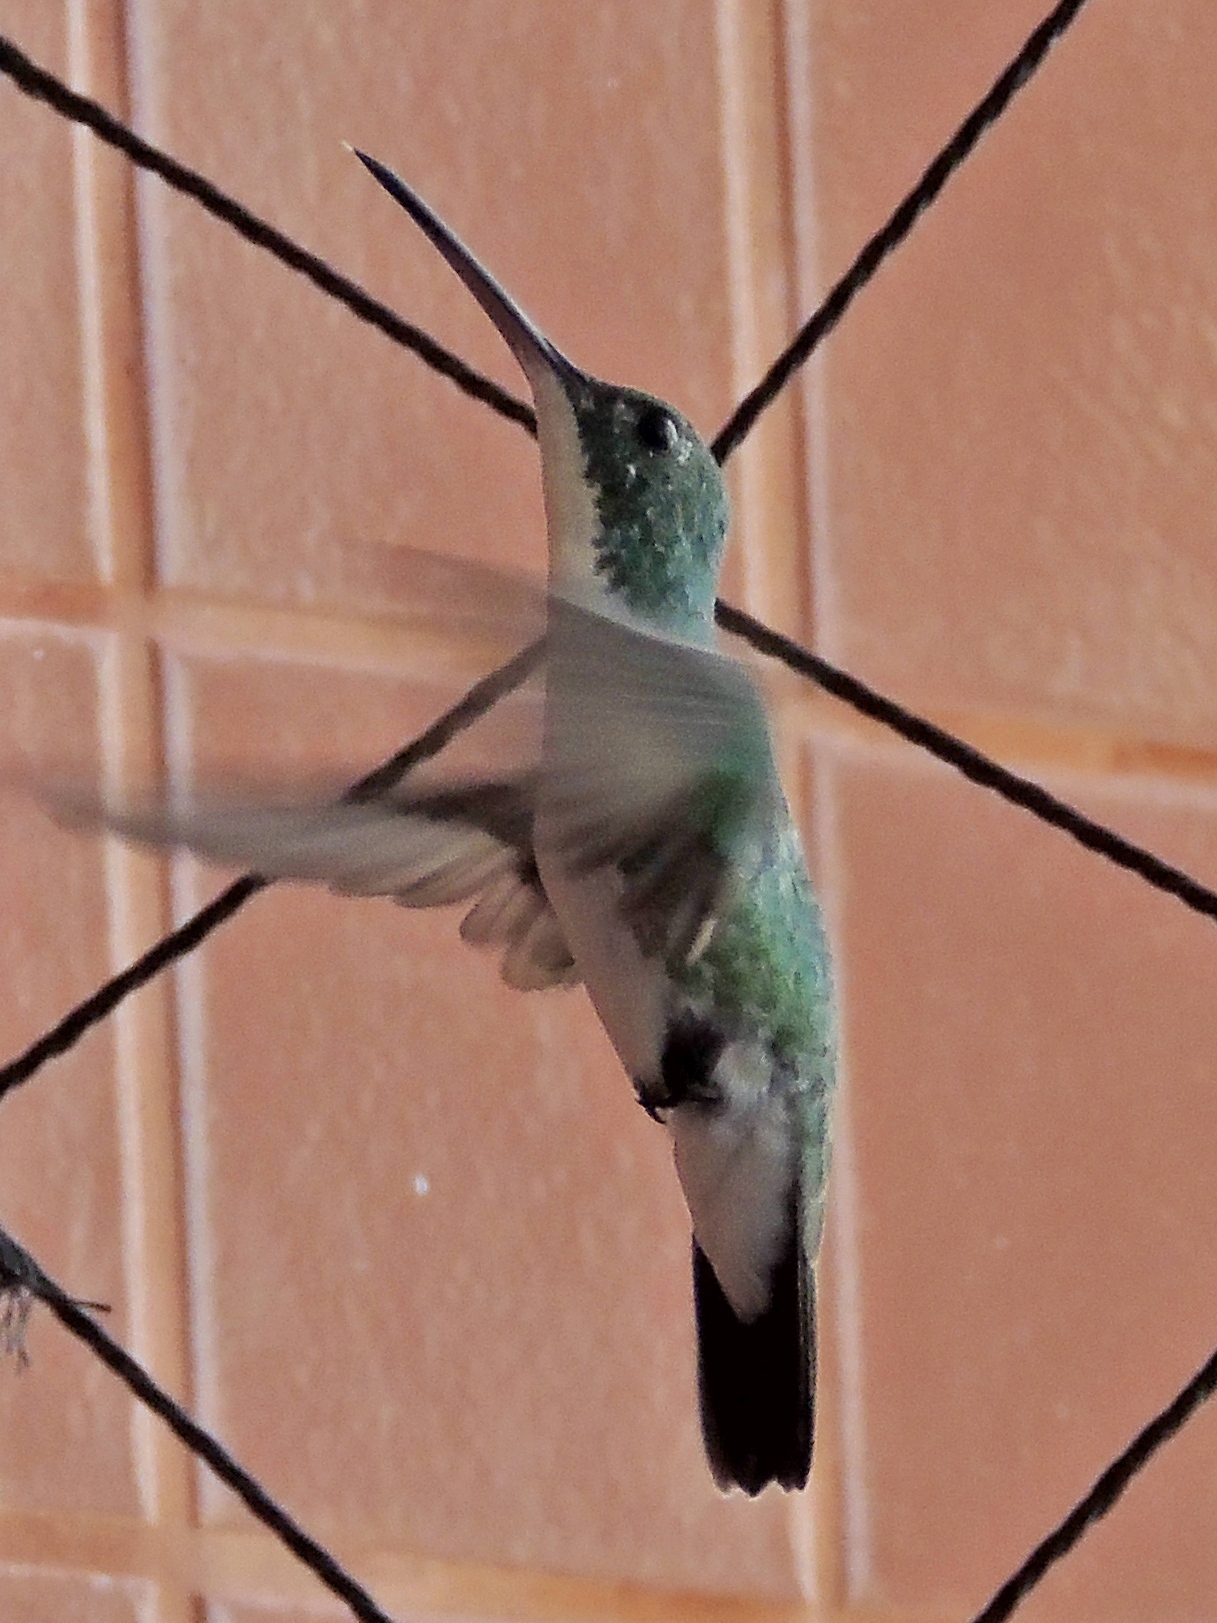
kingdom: Animalia
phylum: Chordata
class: Aves
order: Apodiformes
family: Trochilidae
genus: Chrysuronia
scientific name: Chrysuronia leucogaster
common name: Plain-bellied emerald
